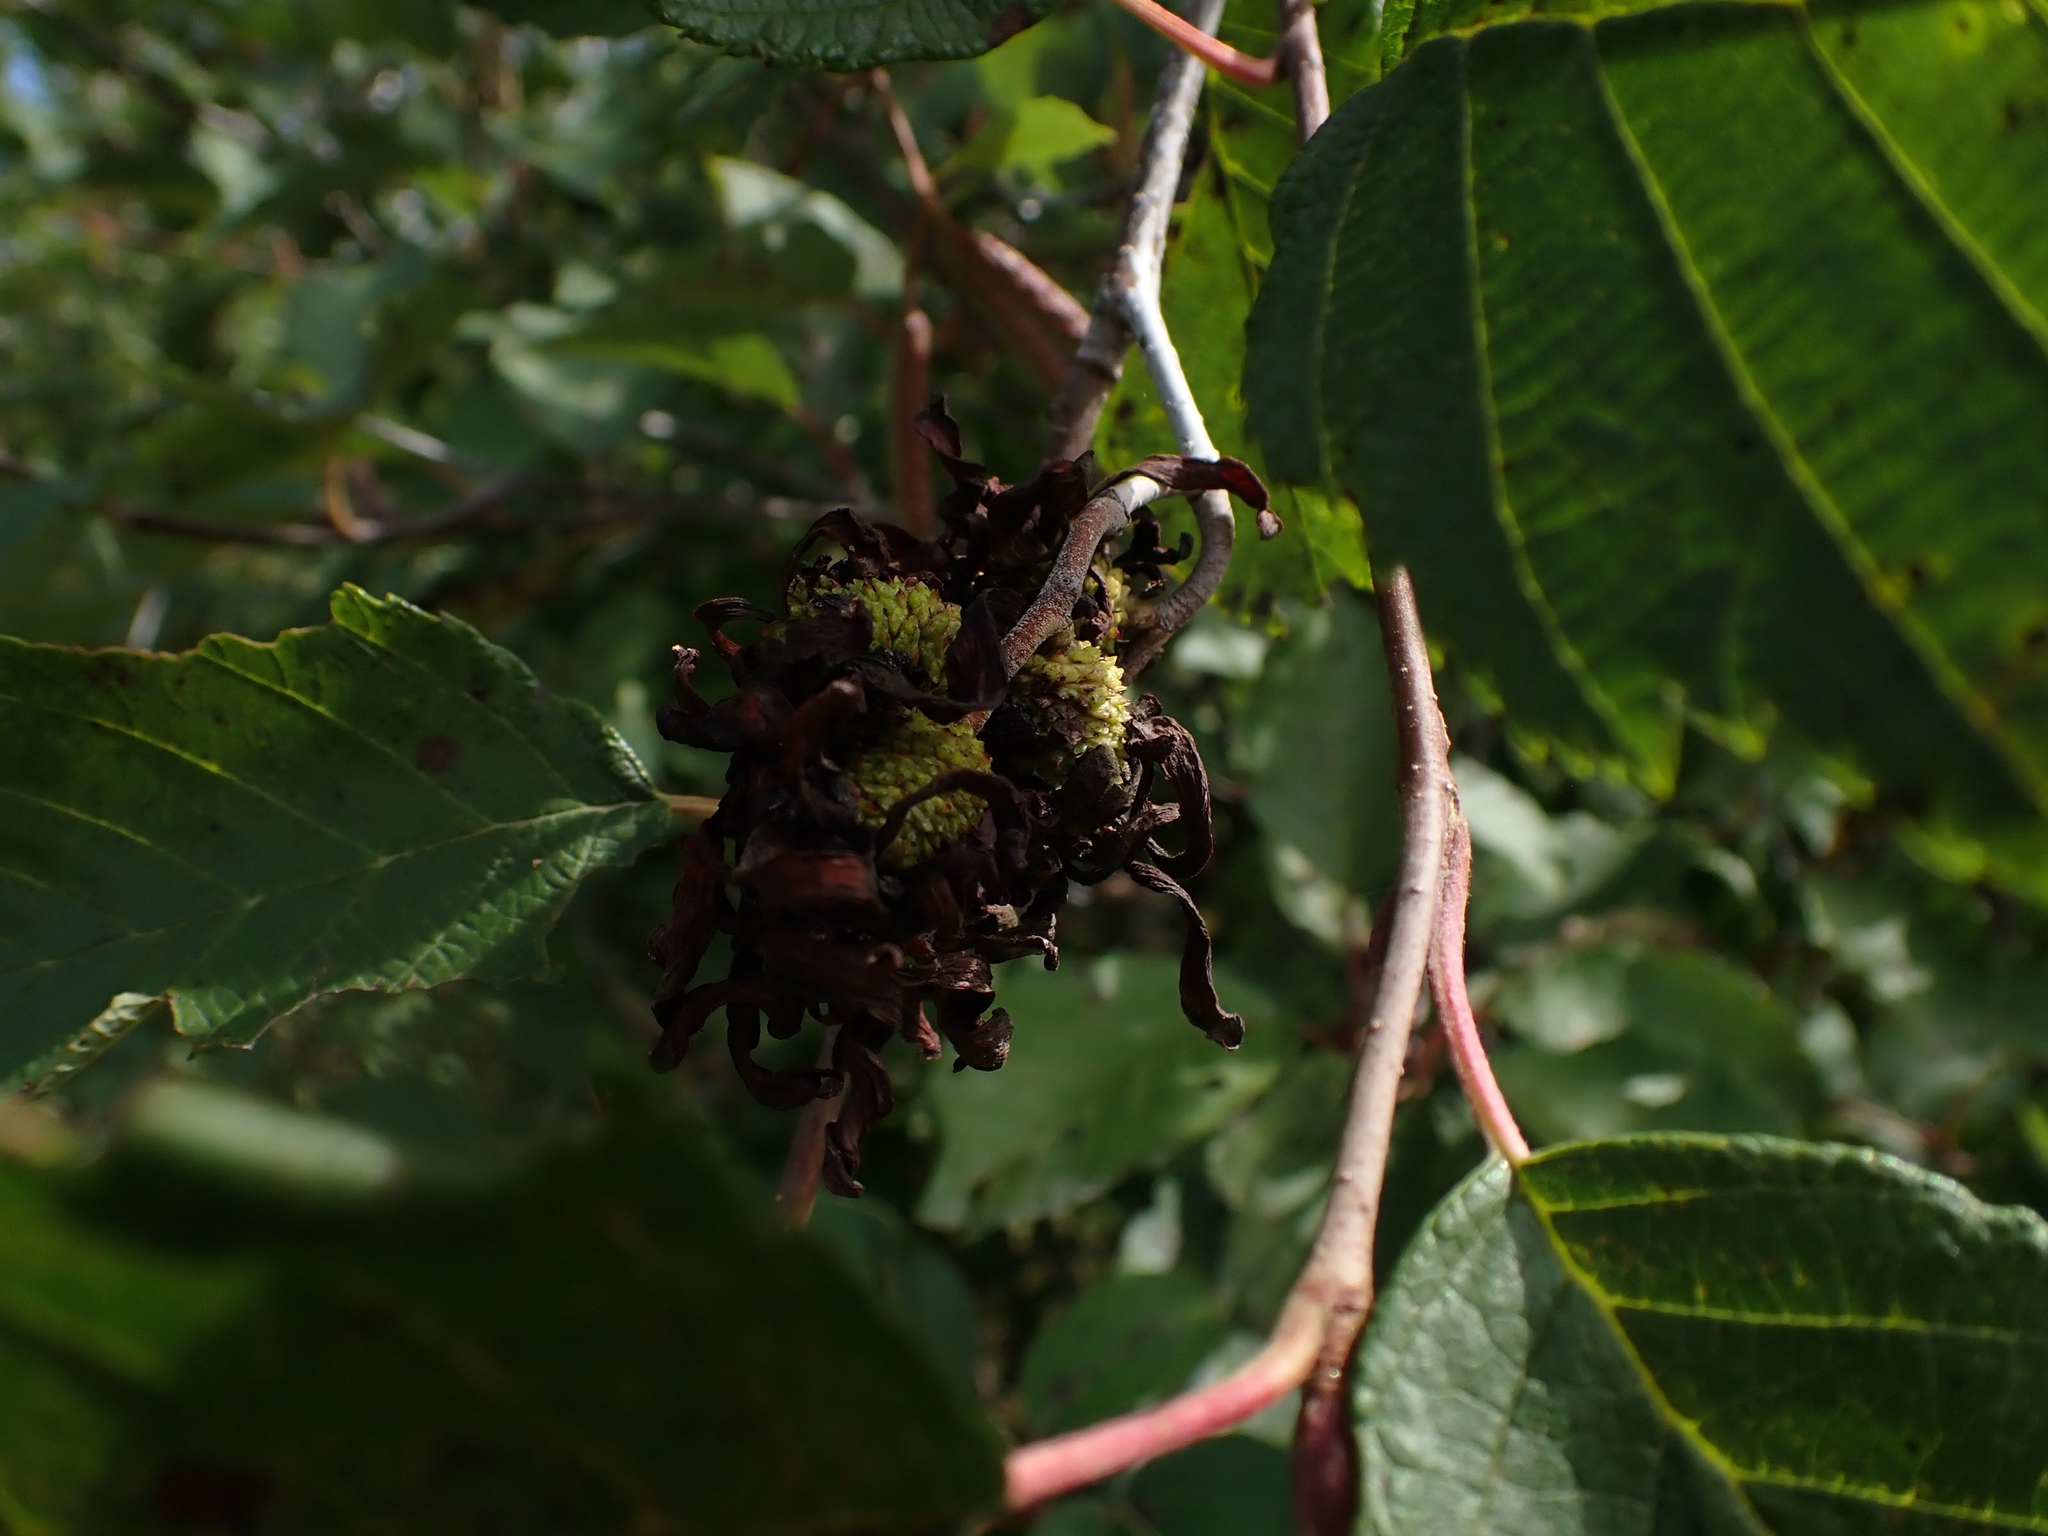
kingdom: Fungi
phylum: Ascomycota
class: Taphrinomycetes
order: Taphrinales
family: Taphrinaceae
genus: Taphrina
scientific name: Taphrina robinsoniana
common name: Eastern american alder tongue gall fungus
